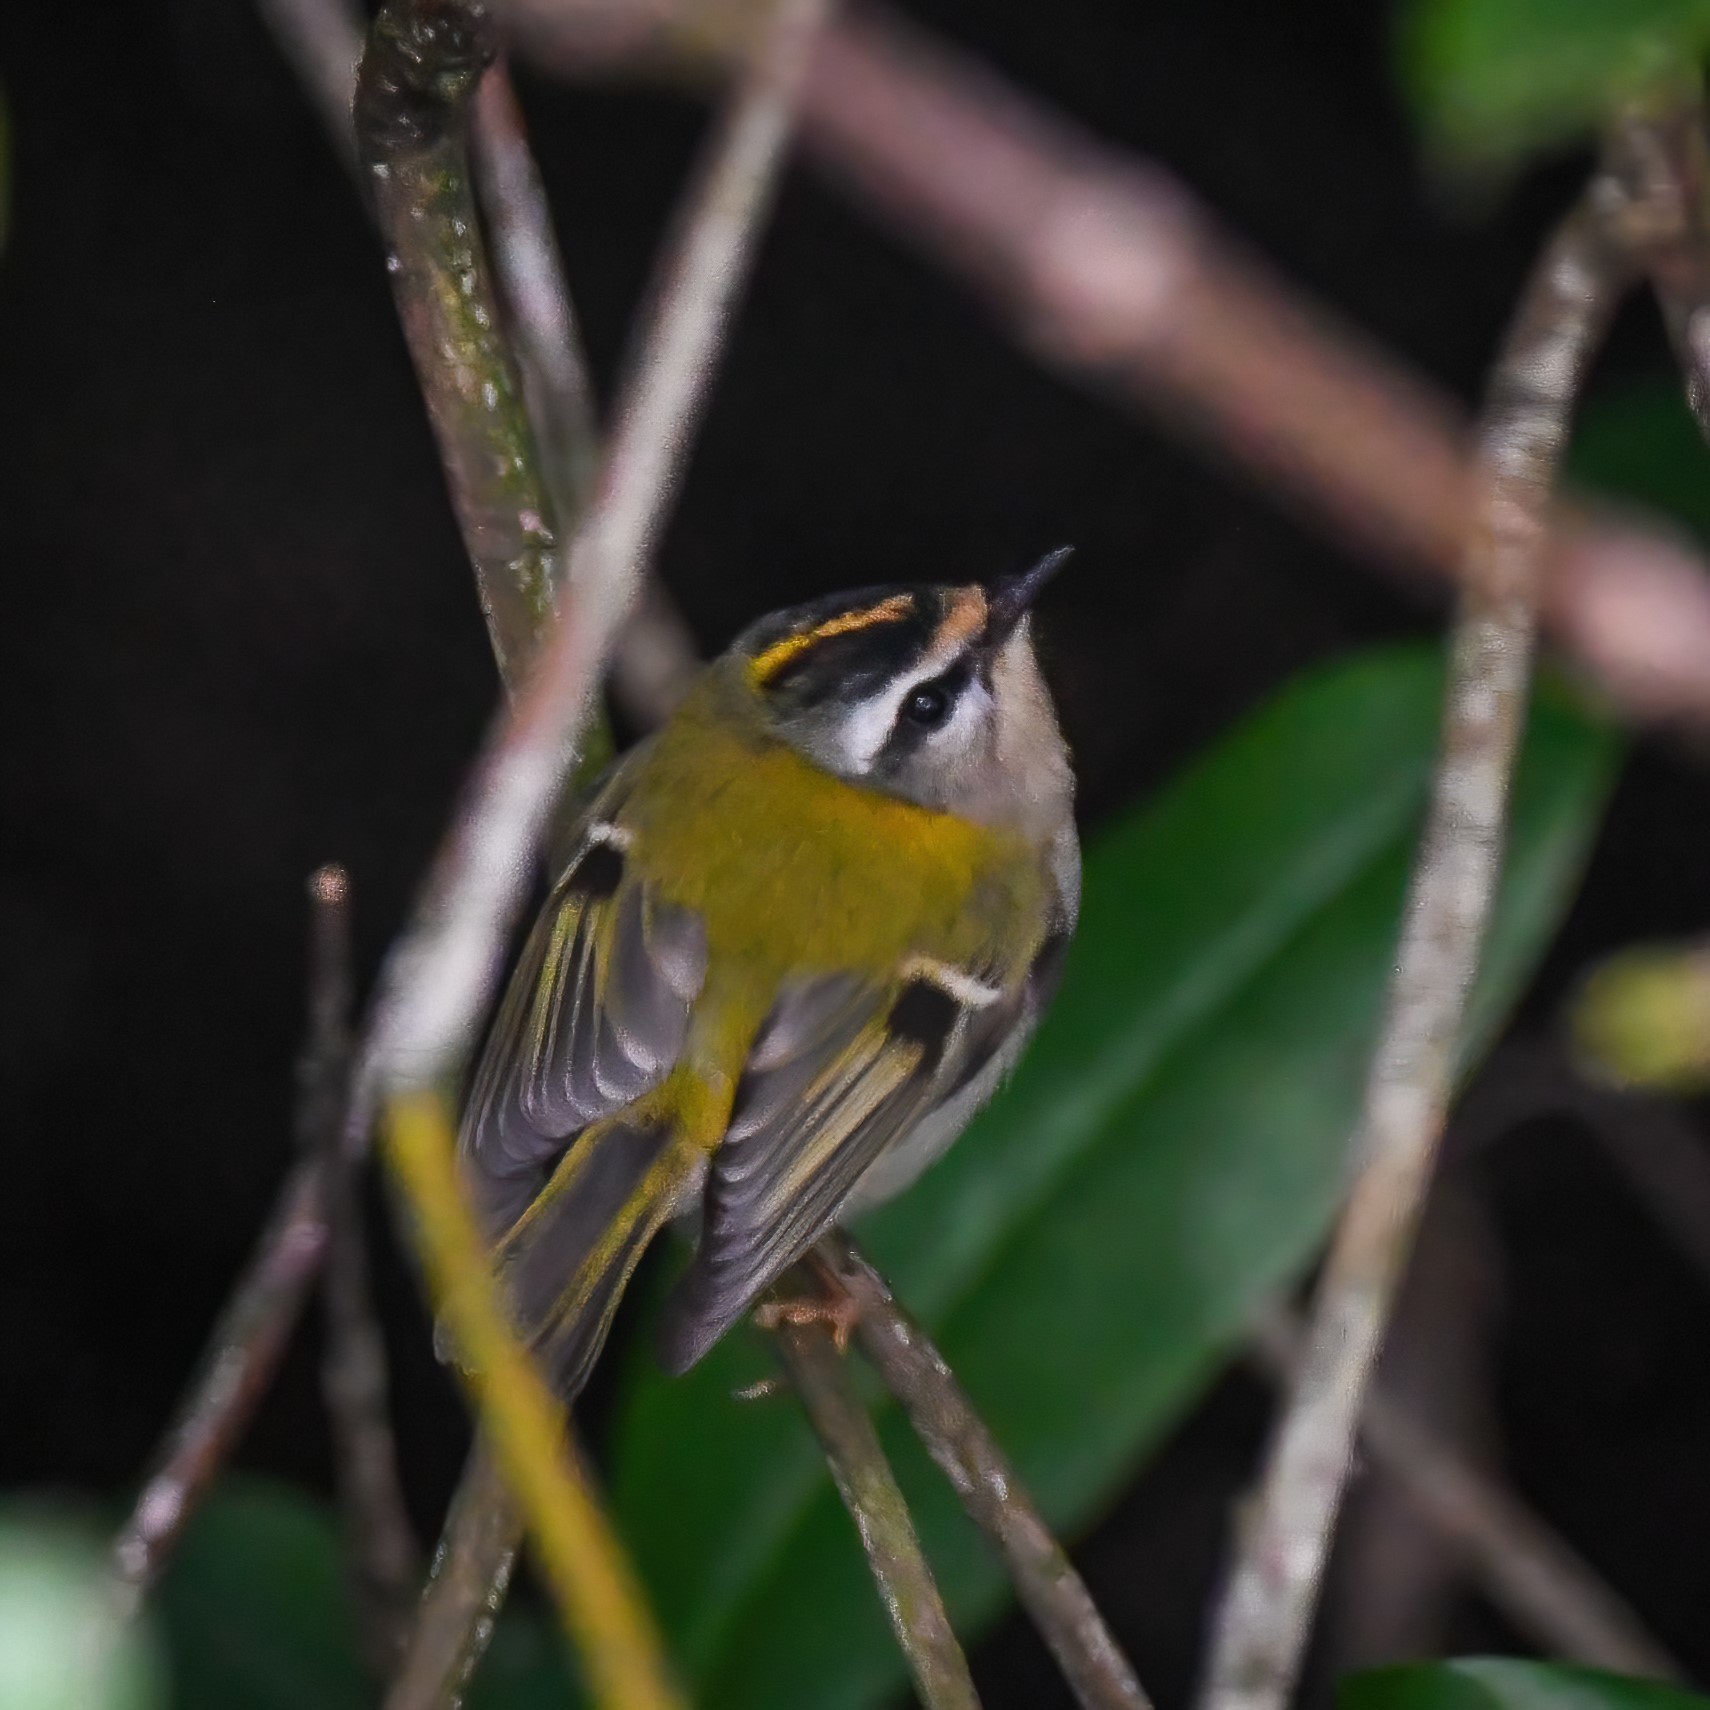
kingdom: Animalia
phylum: Chordata
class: Aves
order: Passeriformes
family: Regulidae
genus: Regulus
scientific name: Regulus ignicapilla
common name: Firecrest
